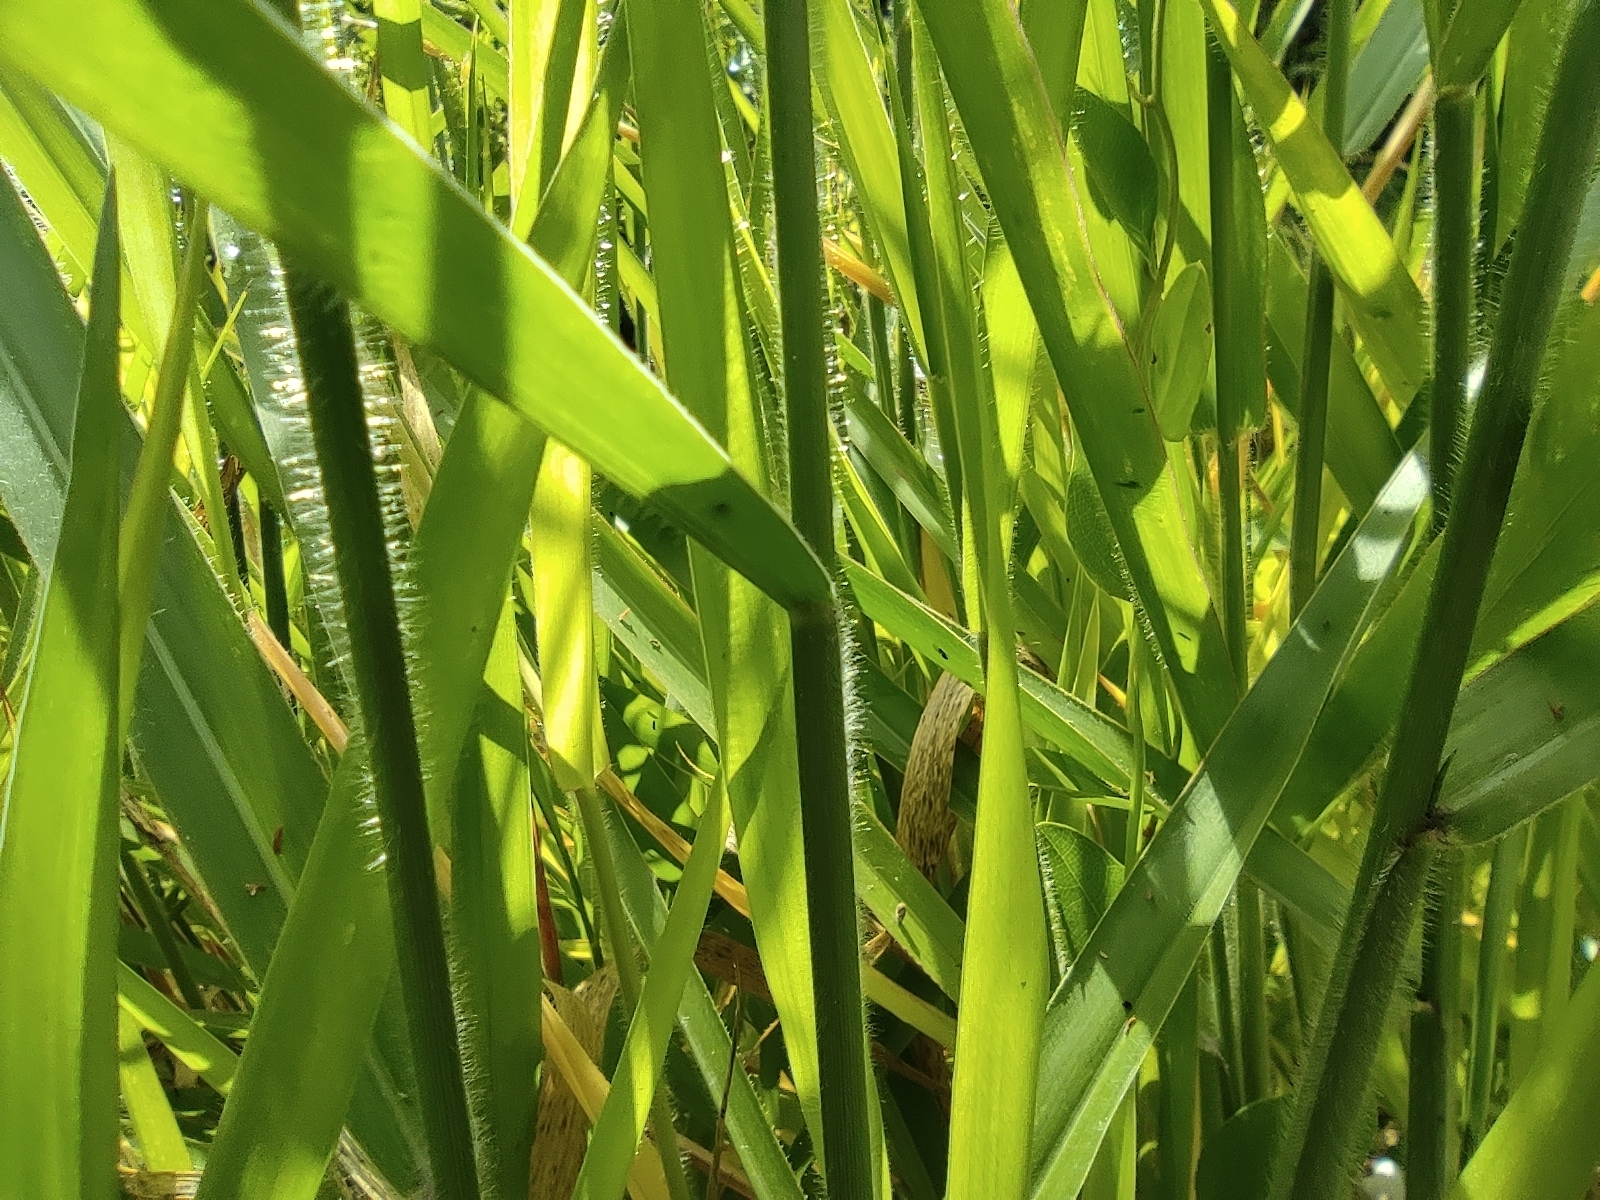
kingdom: Plantae
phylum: Tracheophyta
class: Liliopsida
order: Poales
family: Poaceae
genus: Urochloa
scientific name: Urochloa eminii
